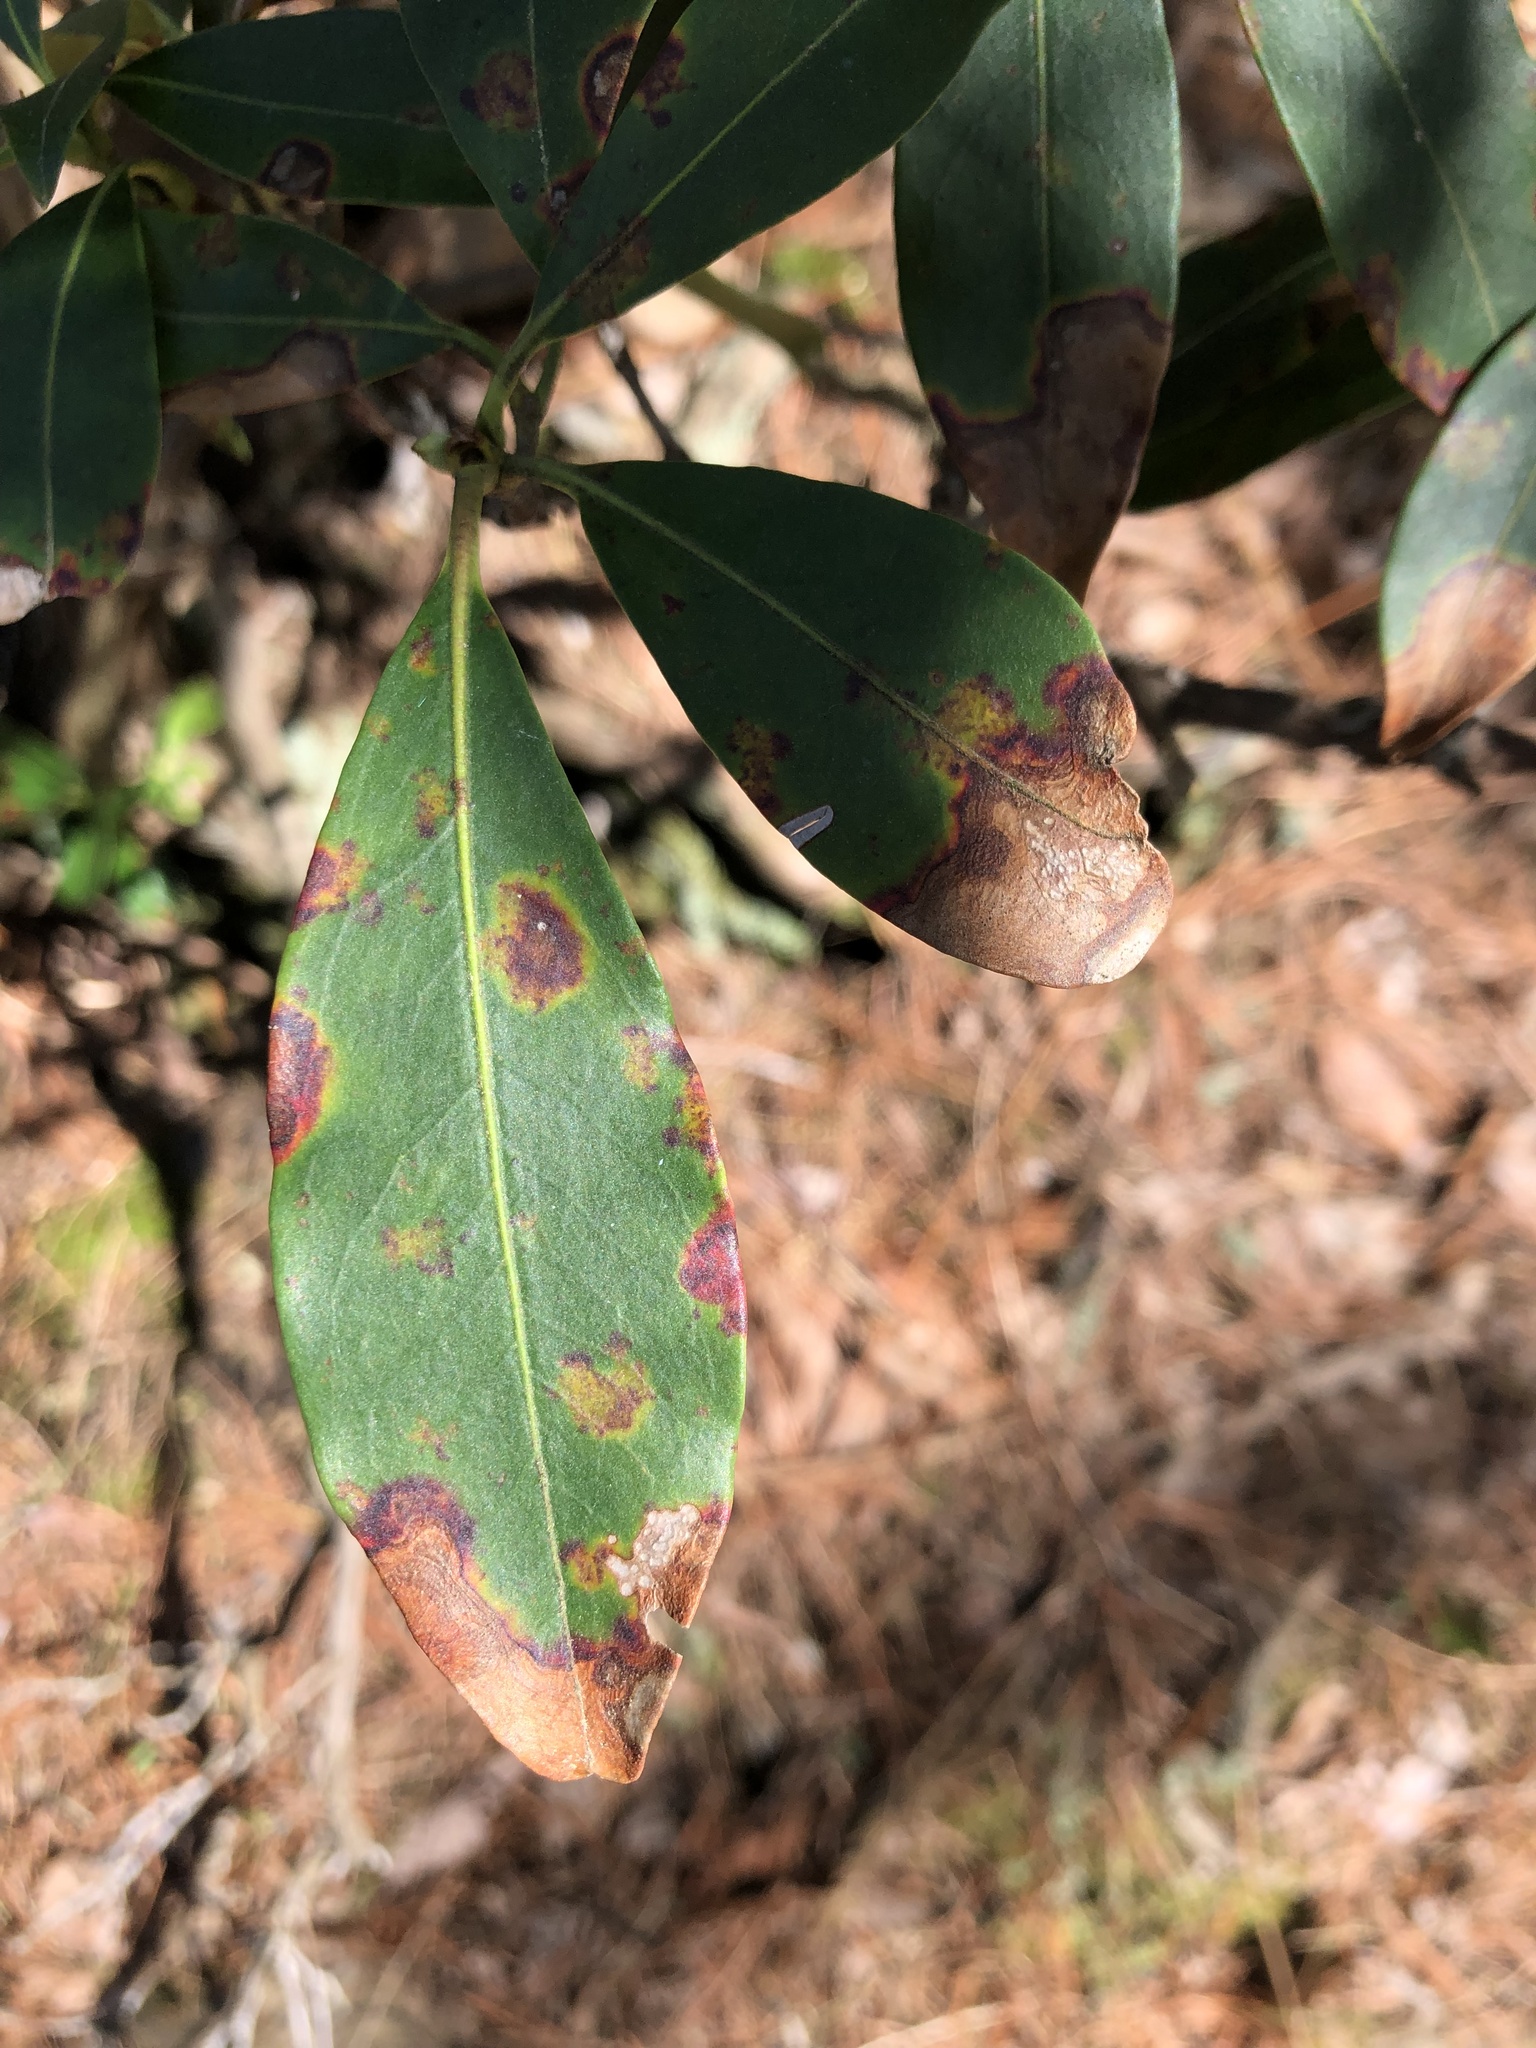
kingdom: Plantae
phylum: Tracheophyta
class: Magnoliopsida
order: Ericales
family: Ericaceae
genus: Kalmia
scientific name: Kalmia latifolia
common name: Mountain-laurel
